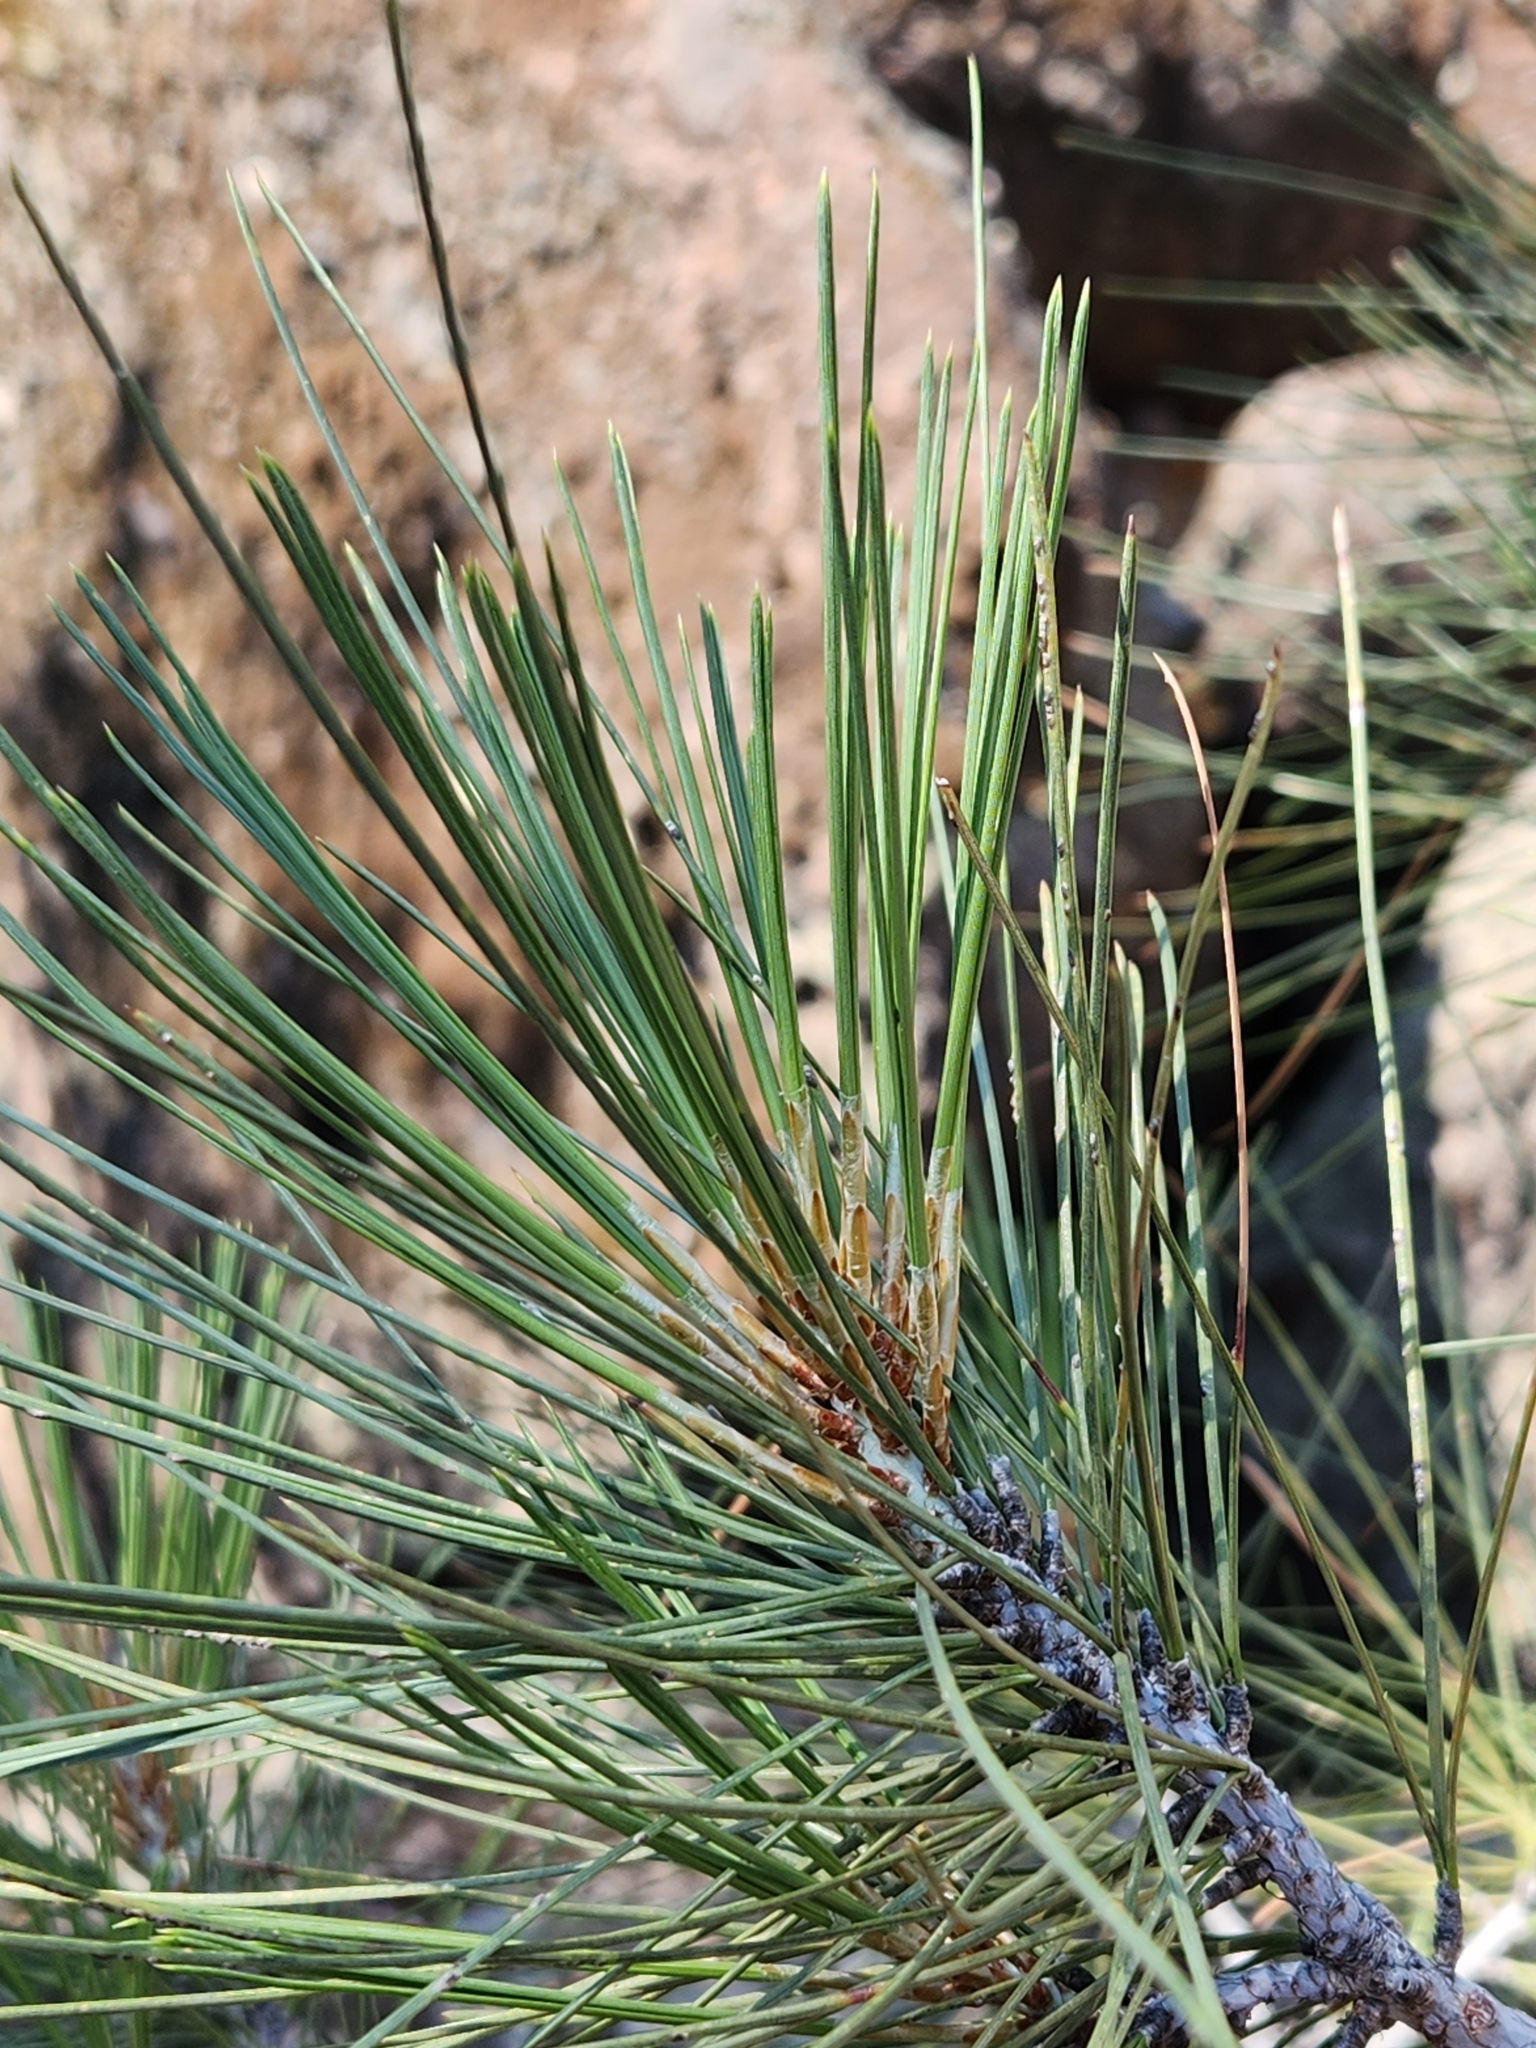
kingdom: Plantae
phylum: Tracheophyta
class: Pinopsida
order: Pinales
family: Pinaceae
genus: Pinus
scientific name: Pinus sabiniana
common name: Bull pine
